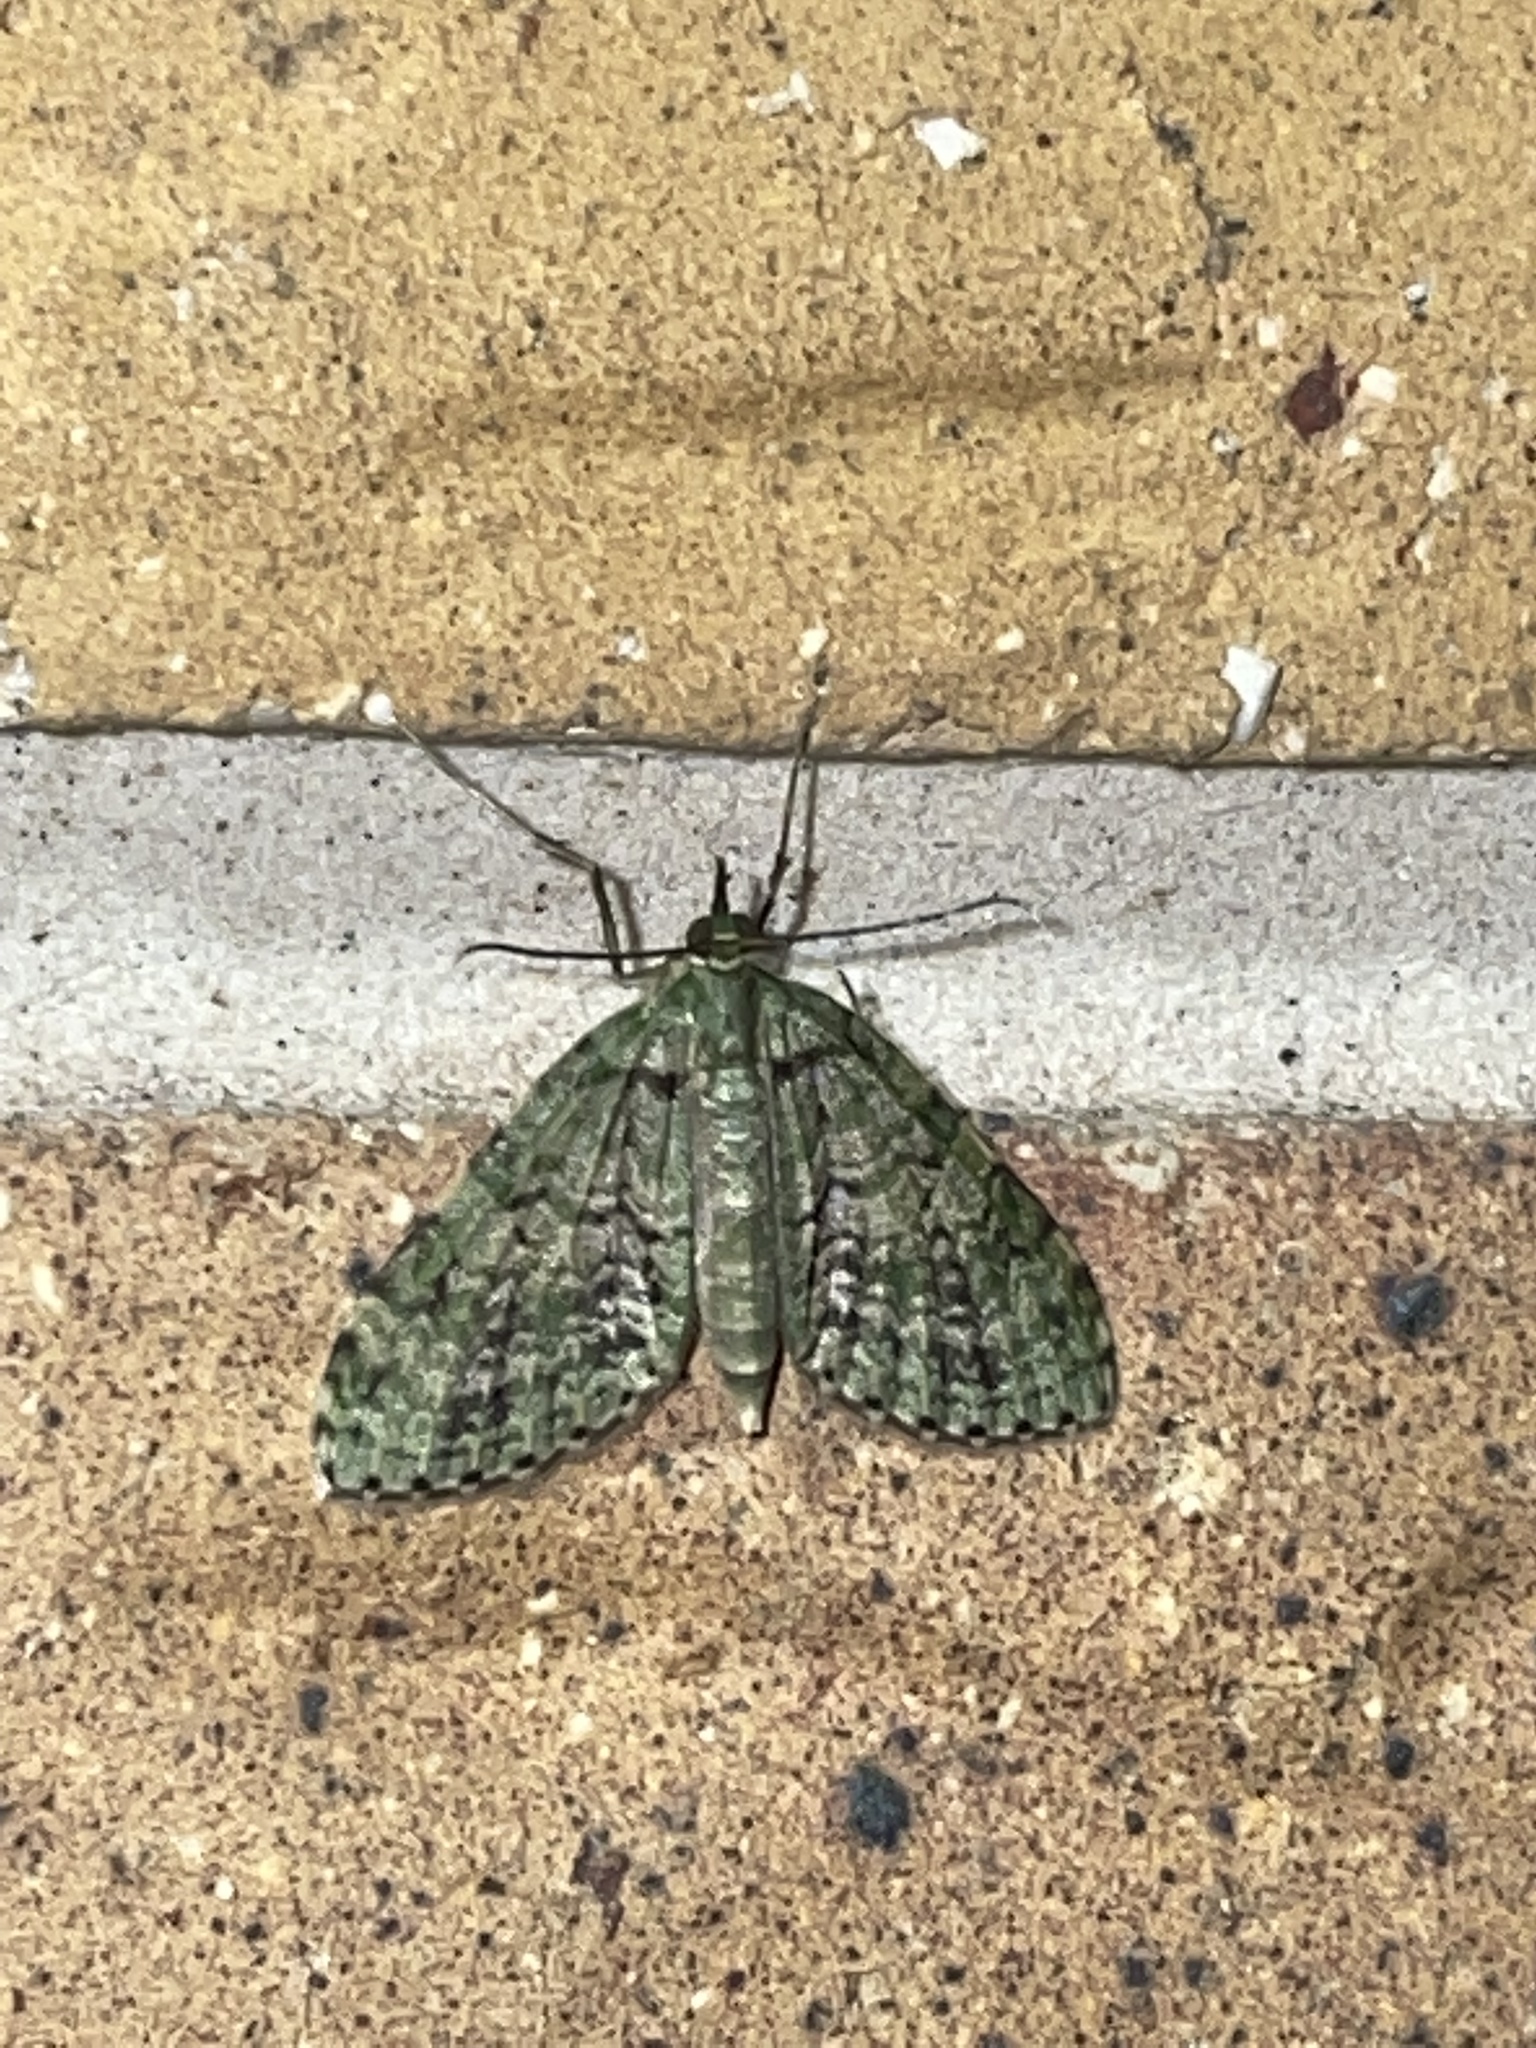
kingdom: Animalia
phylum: Arthropoda
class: Insecta
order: Lepidoptera
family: Geometridae
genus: Sauris
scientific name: Sauris malaca
